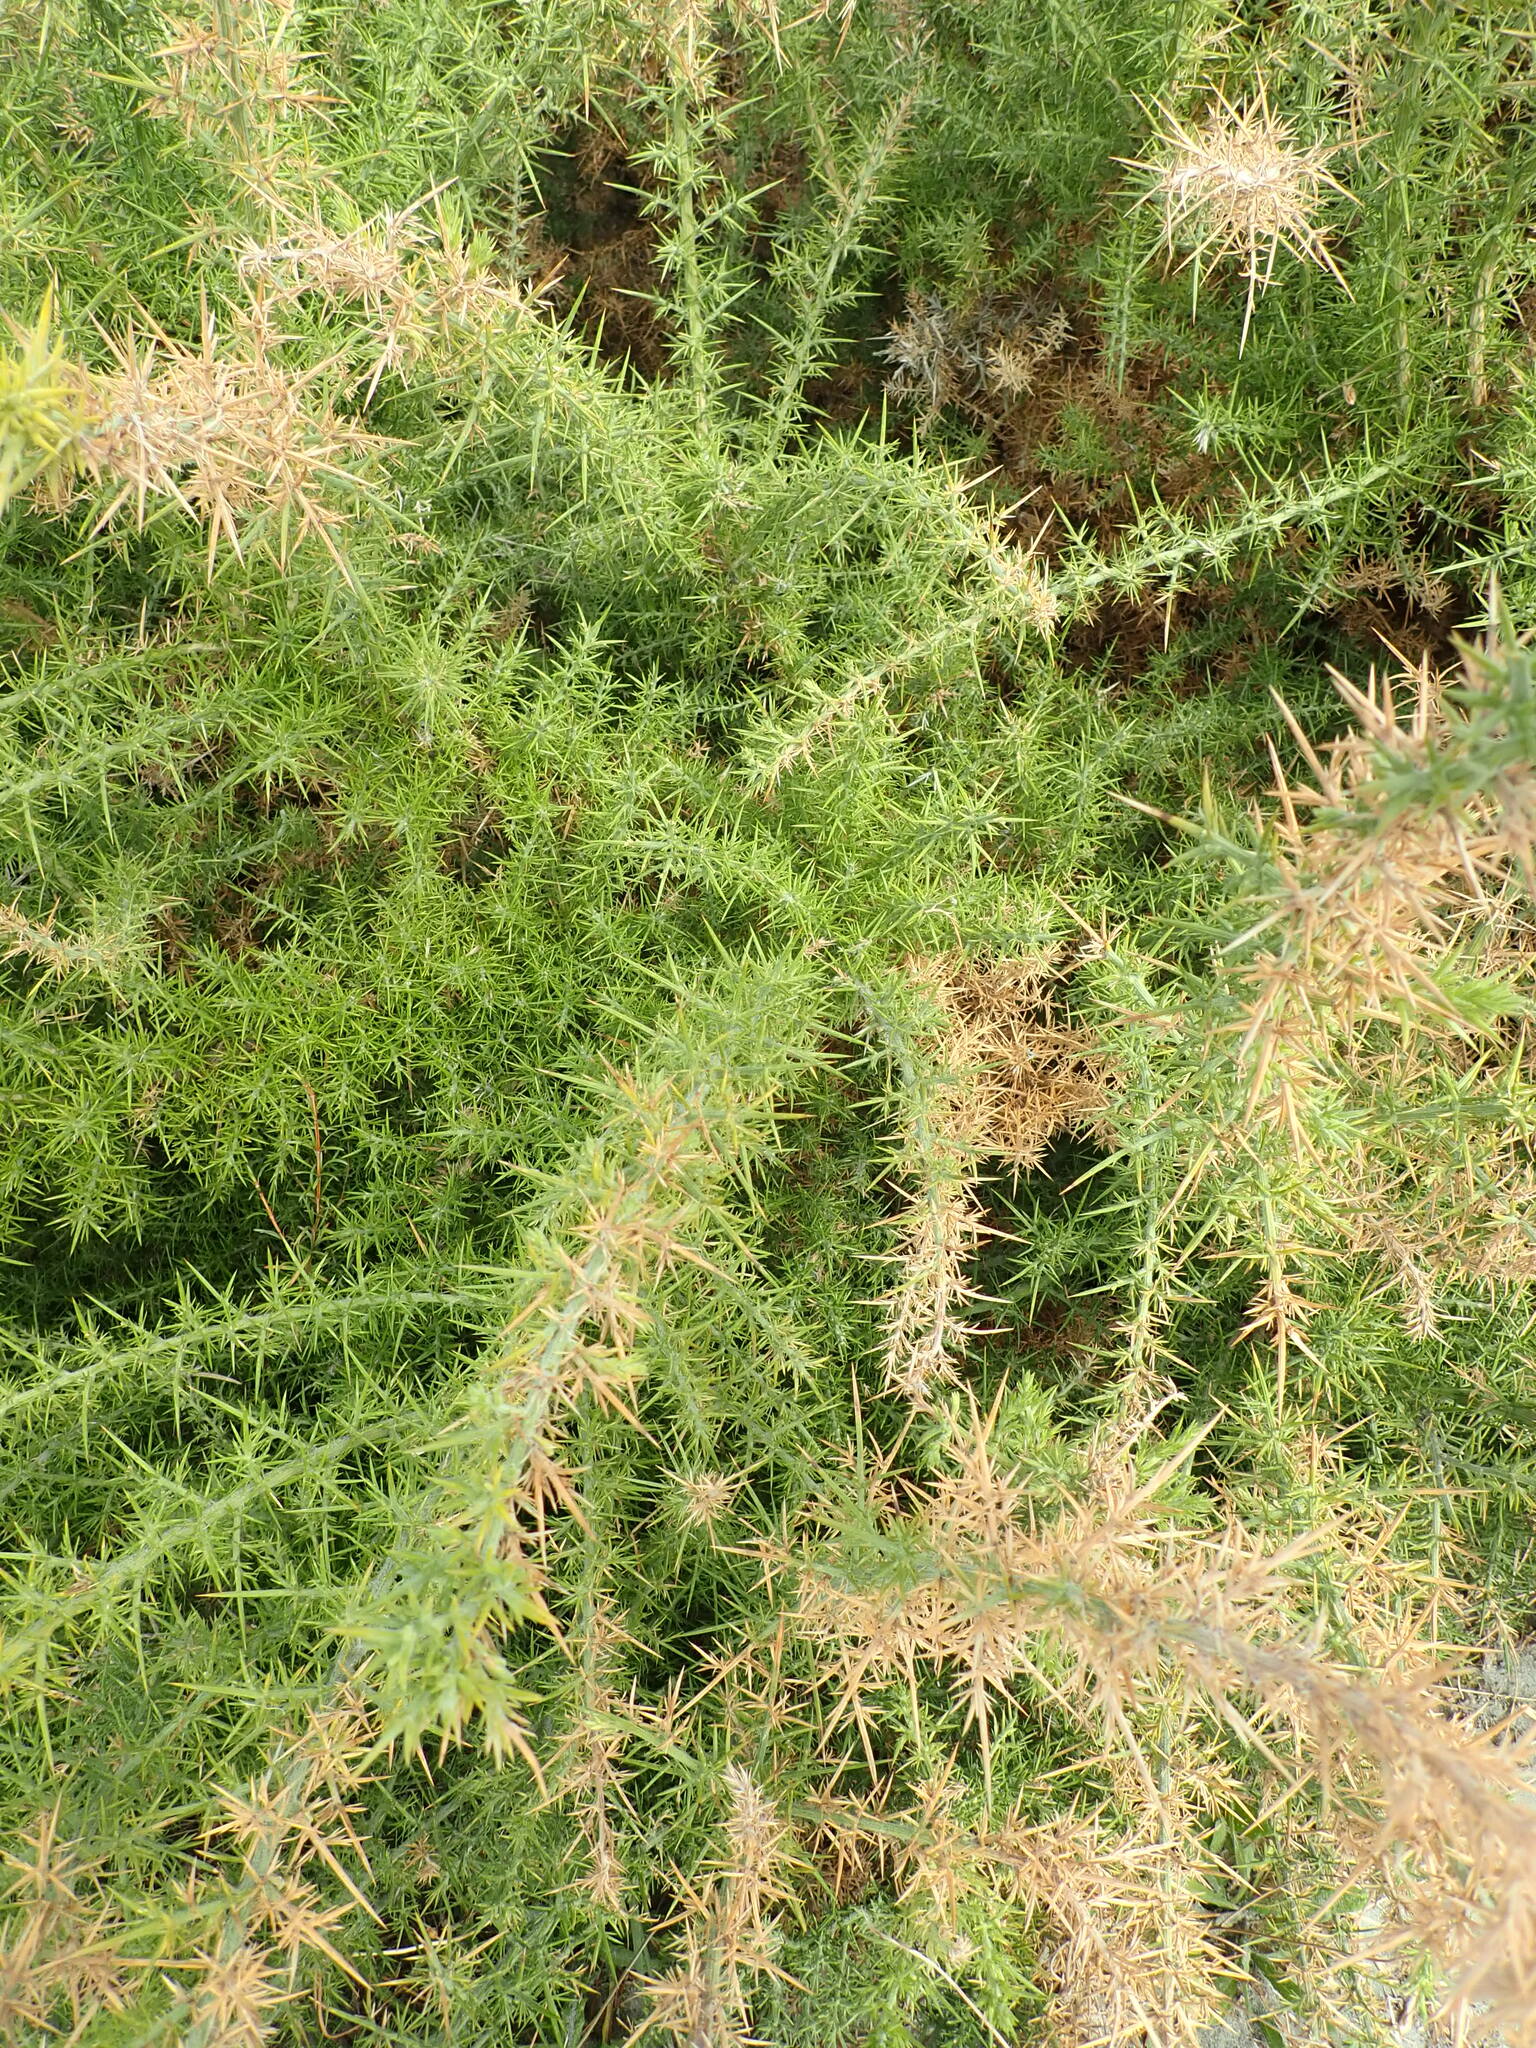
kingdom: Plantae
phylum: Tracheophyta
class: Magnoliopsida
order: Fabales
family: Fabaceae
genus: Ulex
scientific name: Ulex europaeus
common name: Common gorse
